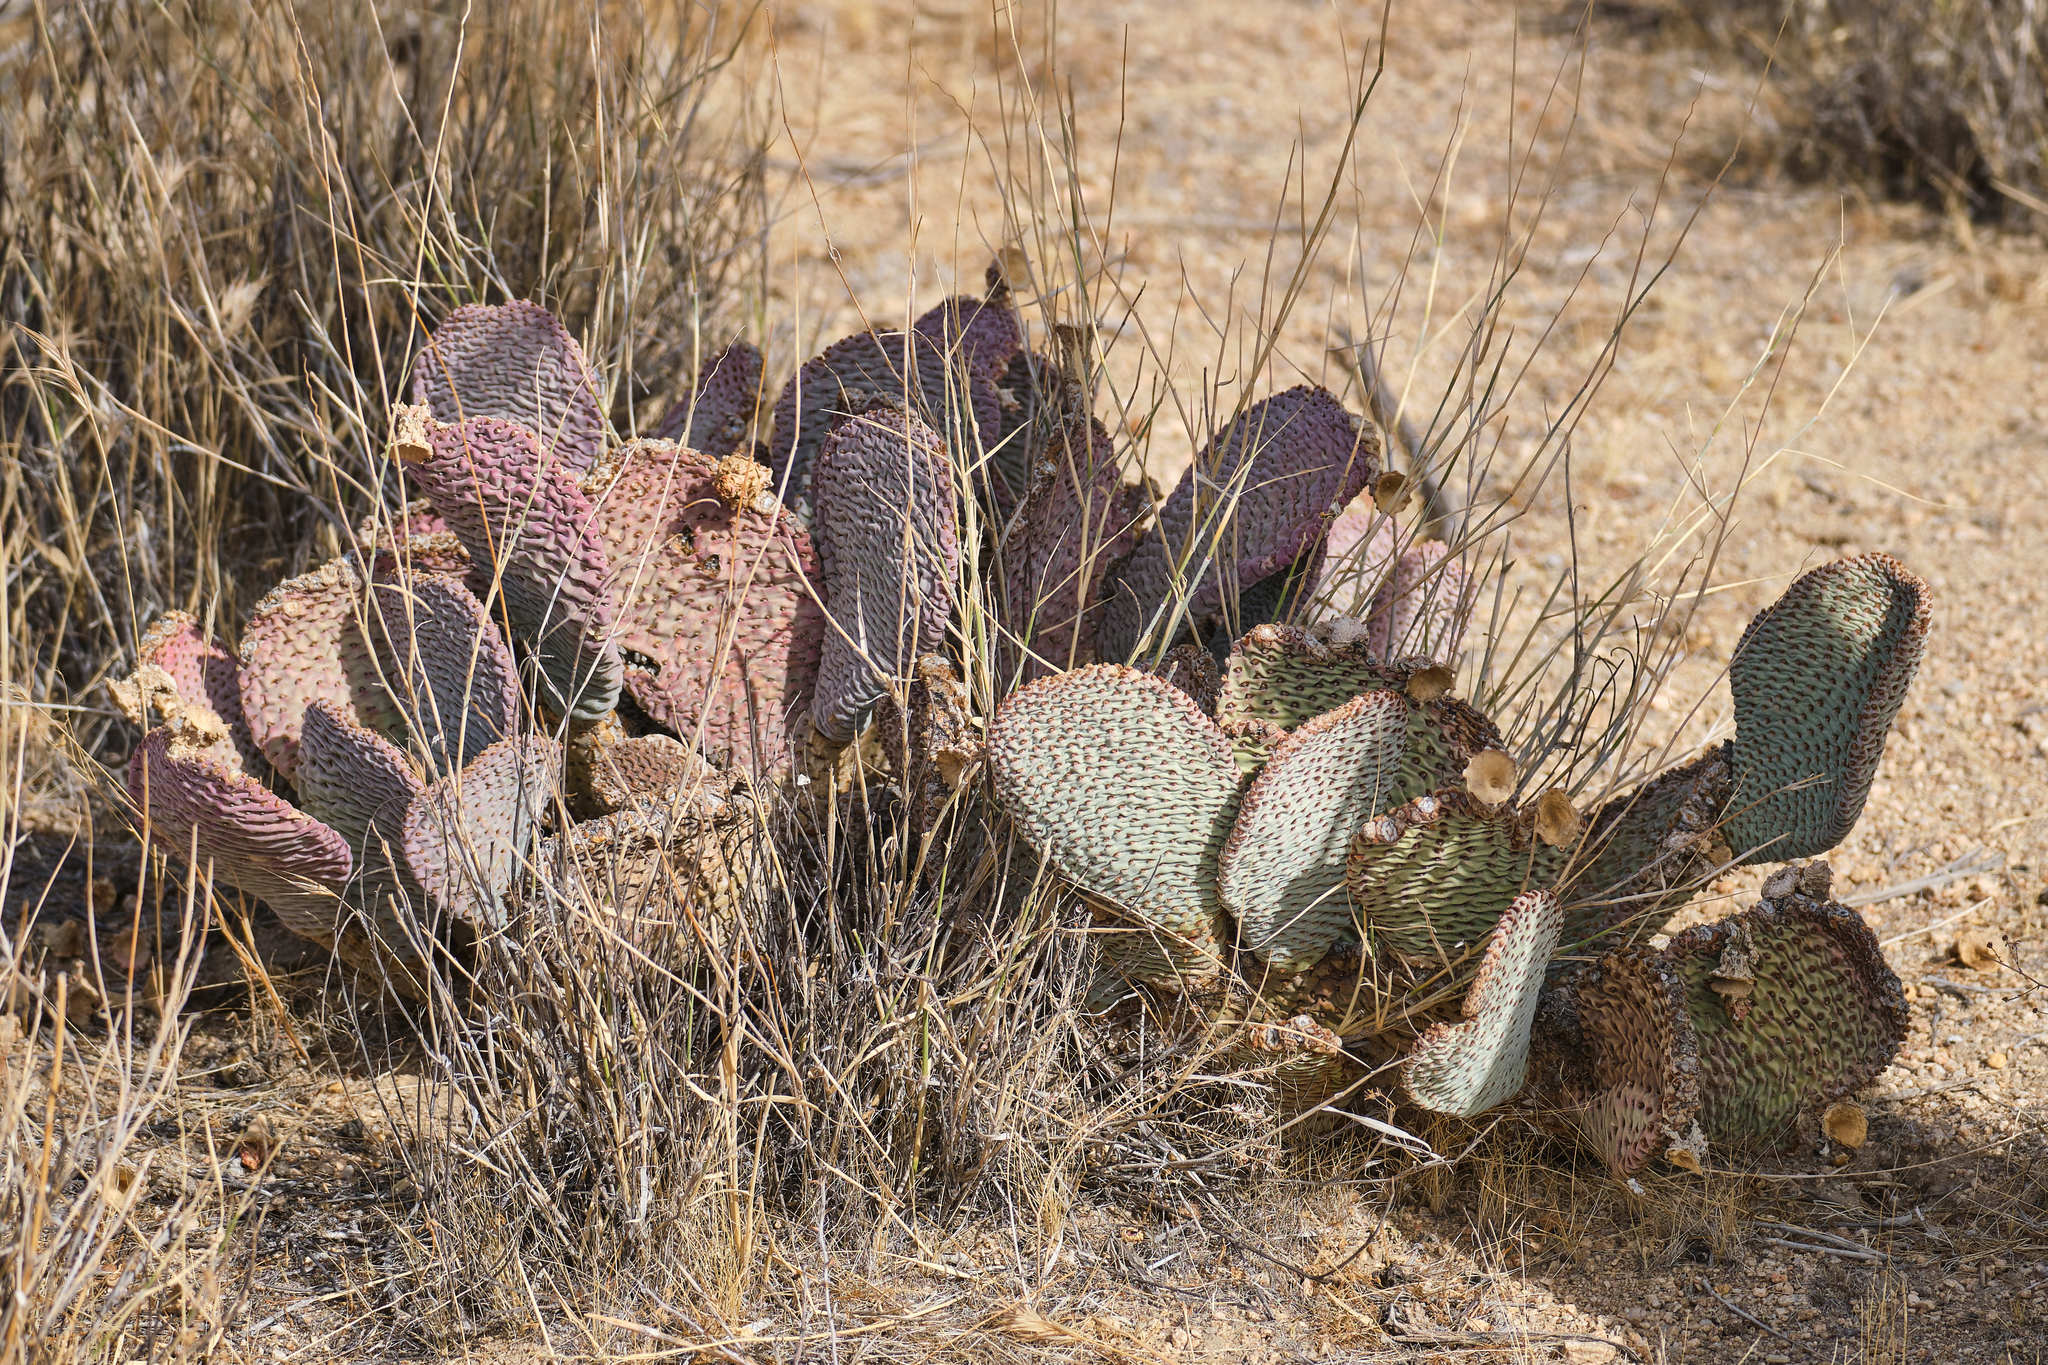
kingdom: Plantae
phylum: Tracheophyta
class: Magnoliopsida
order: Caryophyllales
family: Cactaceae
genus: Opuntia
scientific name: Opuntia basilaris
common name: Beavertail prickly-pear
